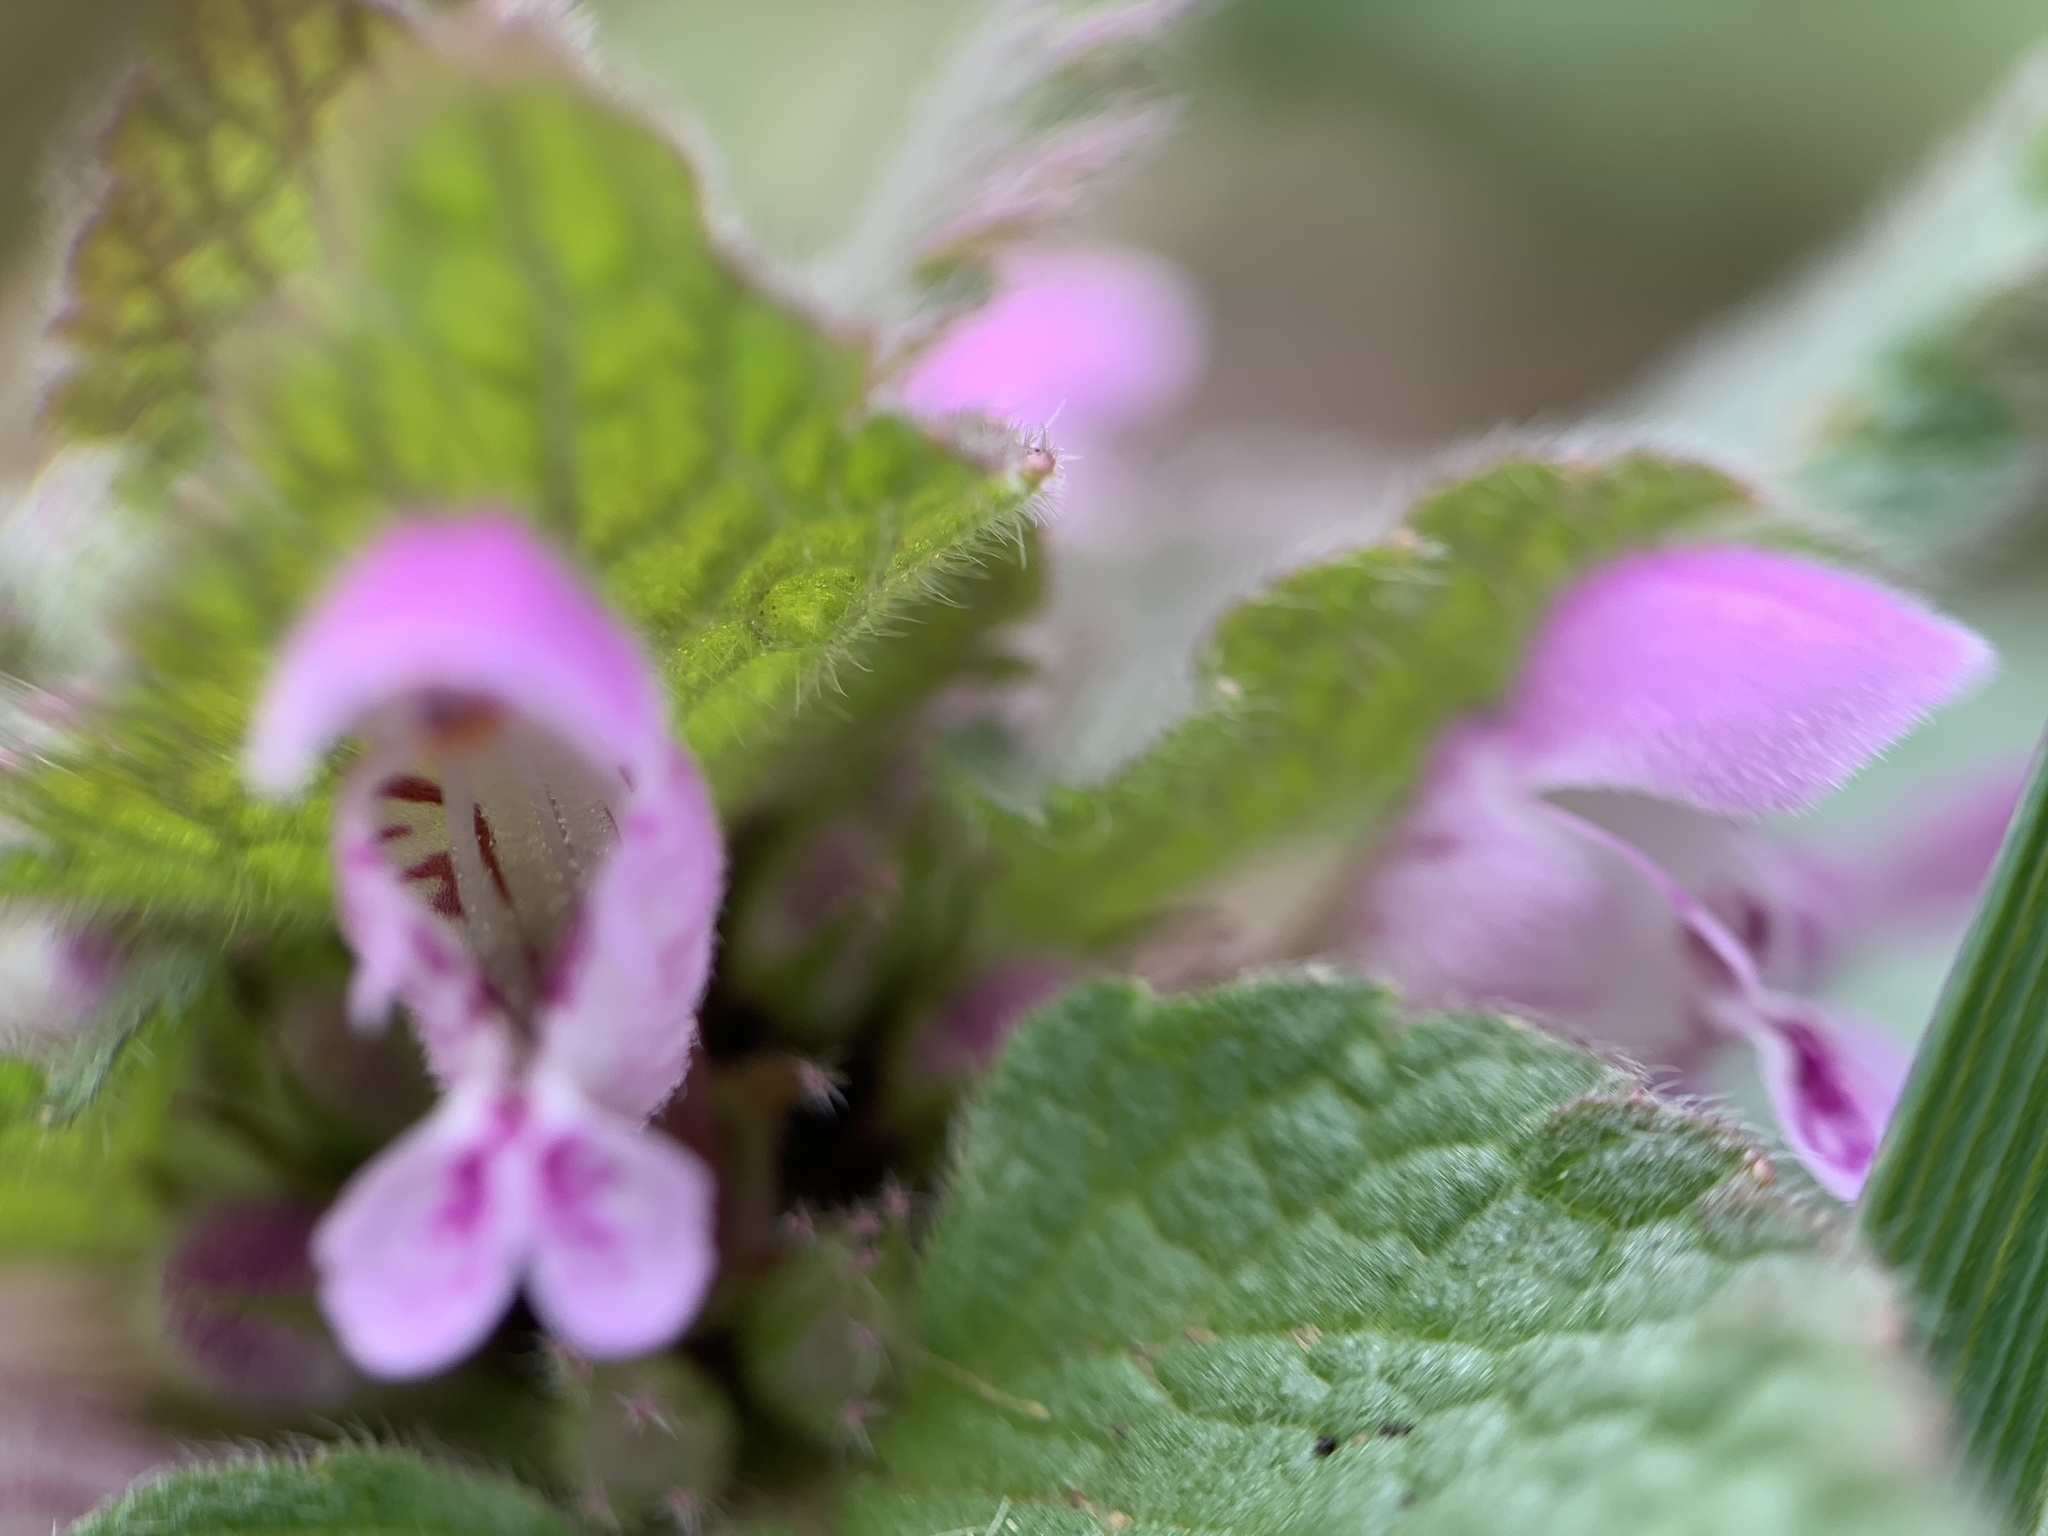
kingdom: Plantae
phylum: Tracheophyta
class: Magnoliopsida
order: Lamiales
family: Lamiaceae
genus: Lamium
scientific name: Lamium purpureum
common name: Red dead-nettle
